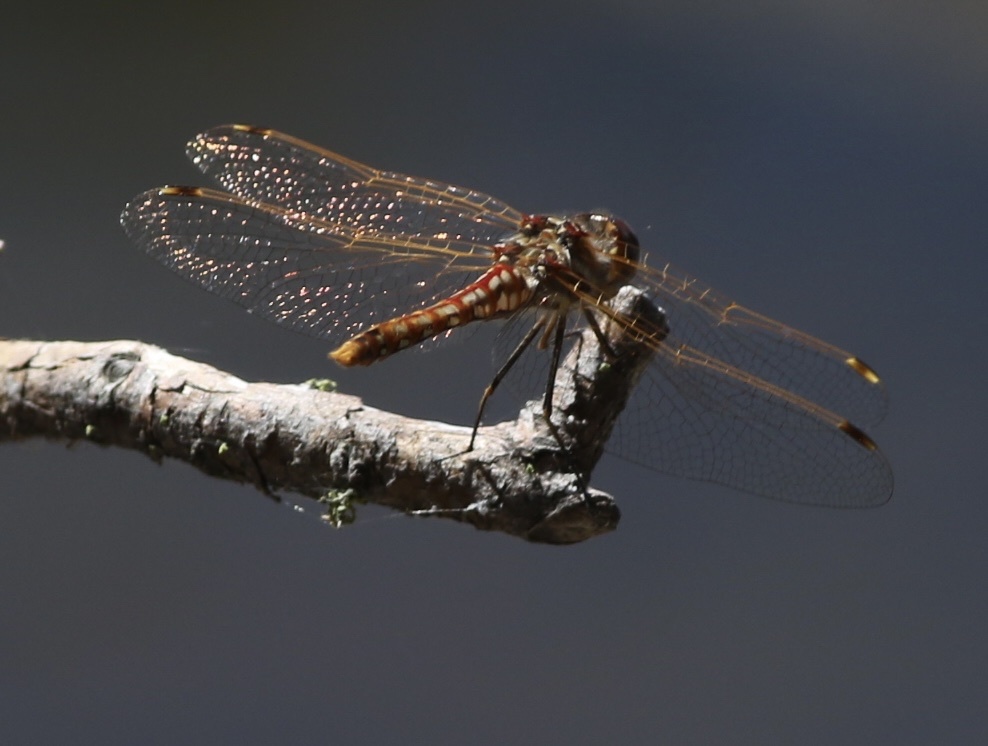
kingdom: Animalia
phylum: Arthropoda
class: Insecta
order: Odonata
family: Libellulidae
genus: Sympetrum
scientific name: Sympetrum corruptum
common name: Variegated meadowhawk
